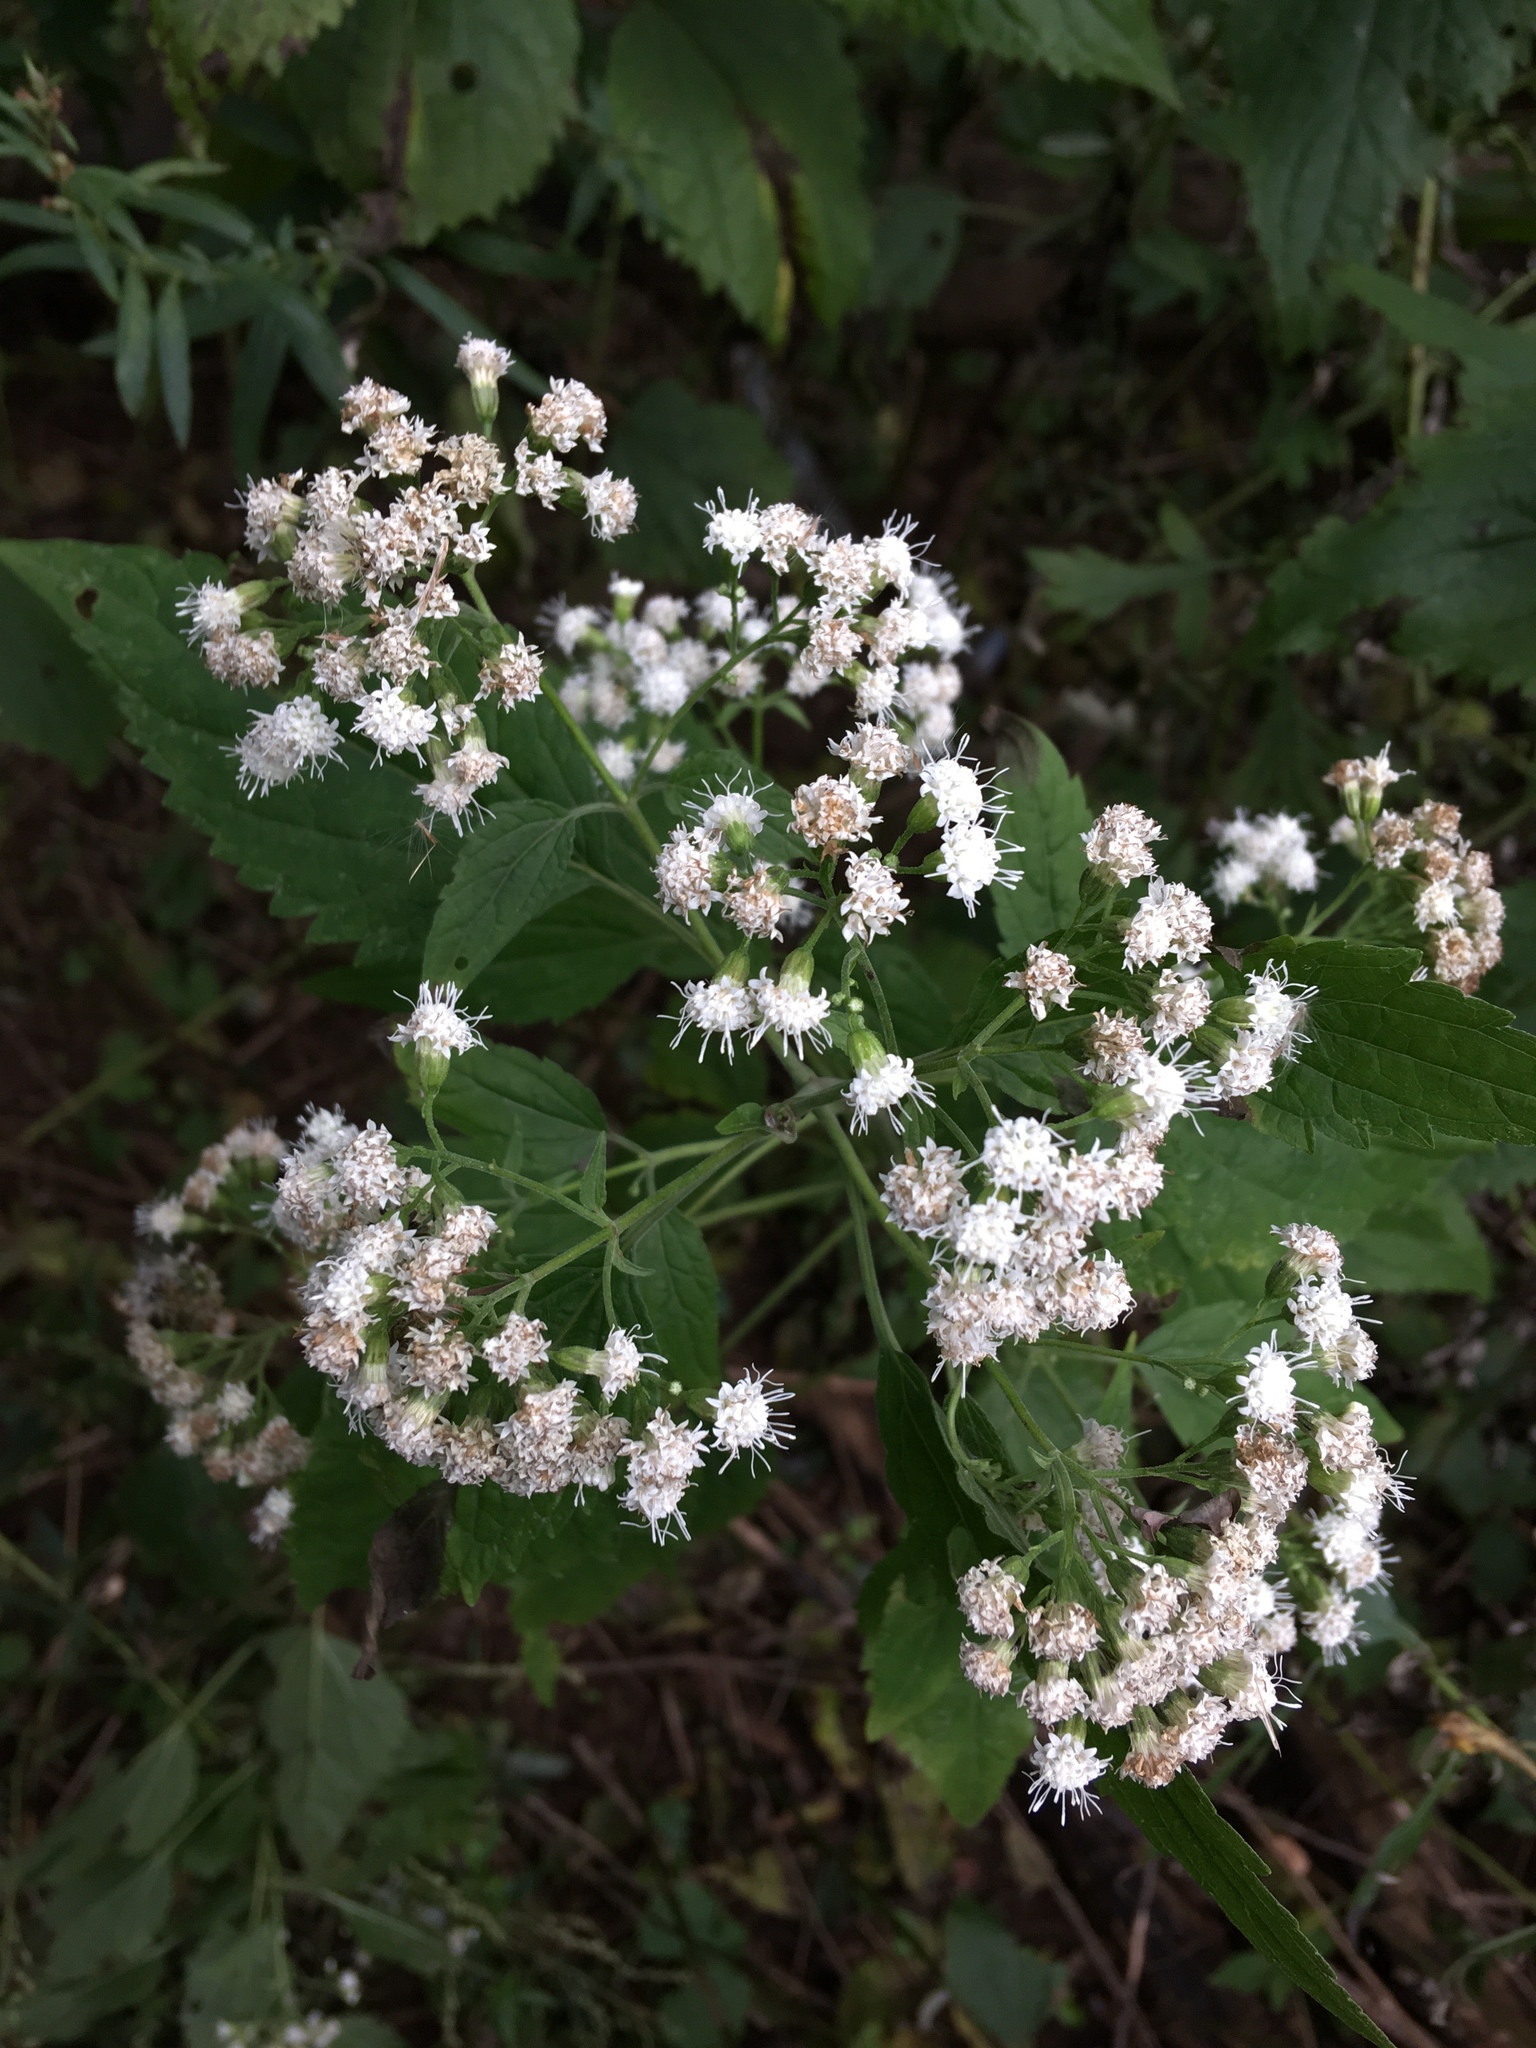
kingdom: Plantae
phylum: Tracheophyta
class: Magnoliopsida
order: Asterales
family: Asteraceae
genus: Ageratina
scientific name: Ageratina altissima
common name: White snakeroot
